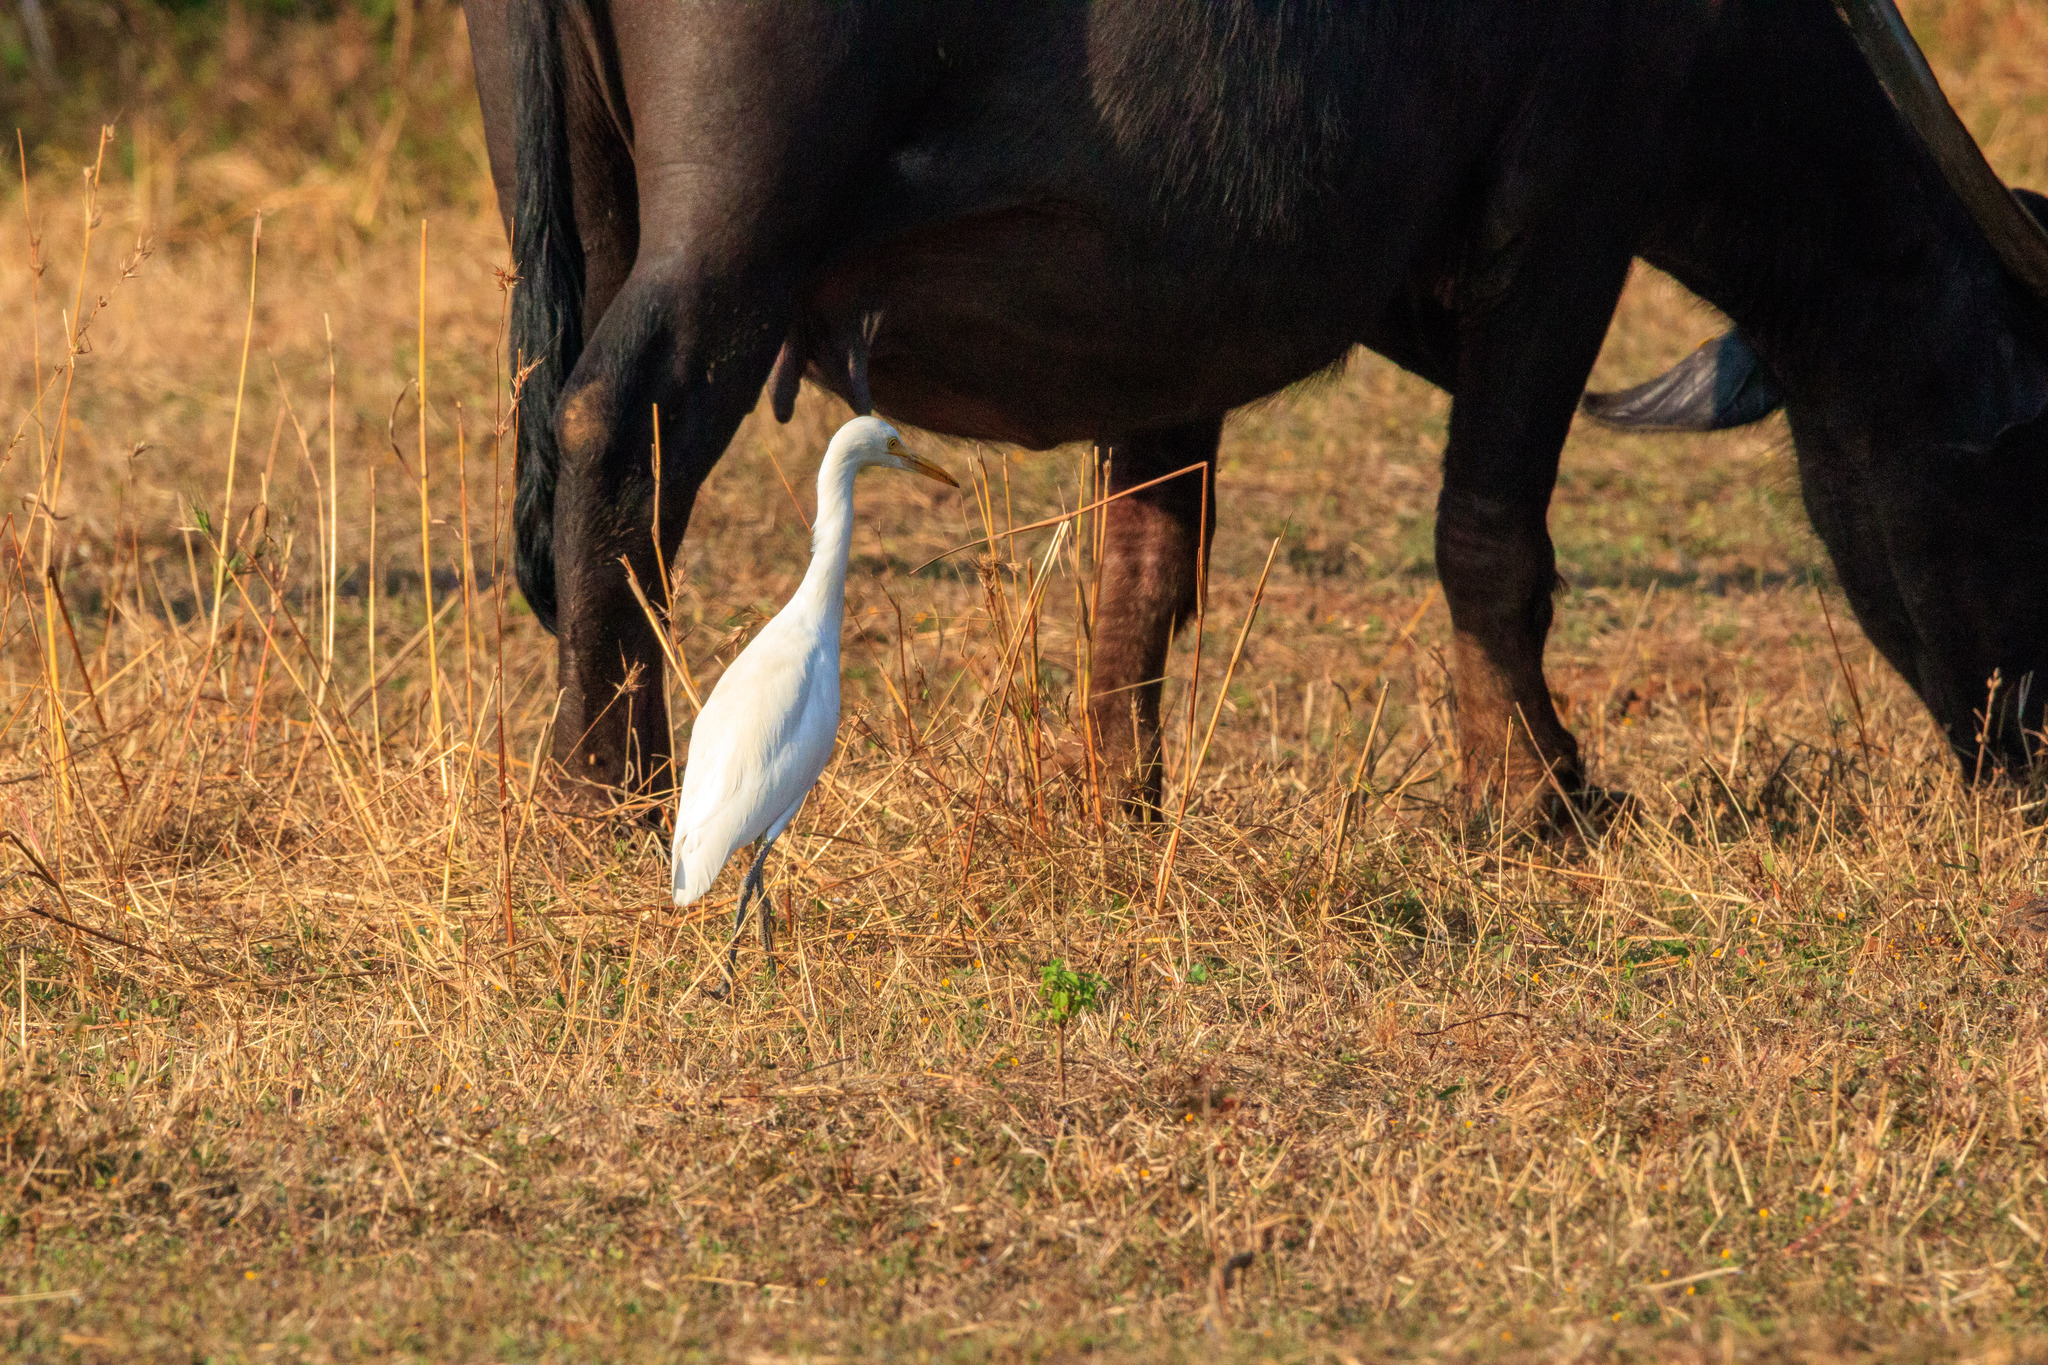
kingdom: Animalia
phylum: Chordata
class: Aves
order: Pelecaniformes
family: Ardeidae
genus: Bubulcus
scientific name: Bubulcus coromandus
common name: Eastern cattle egret
